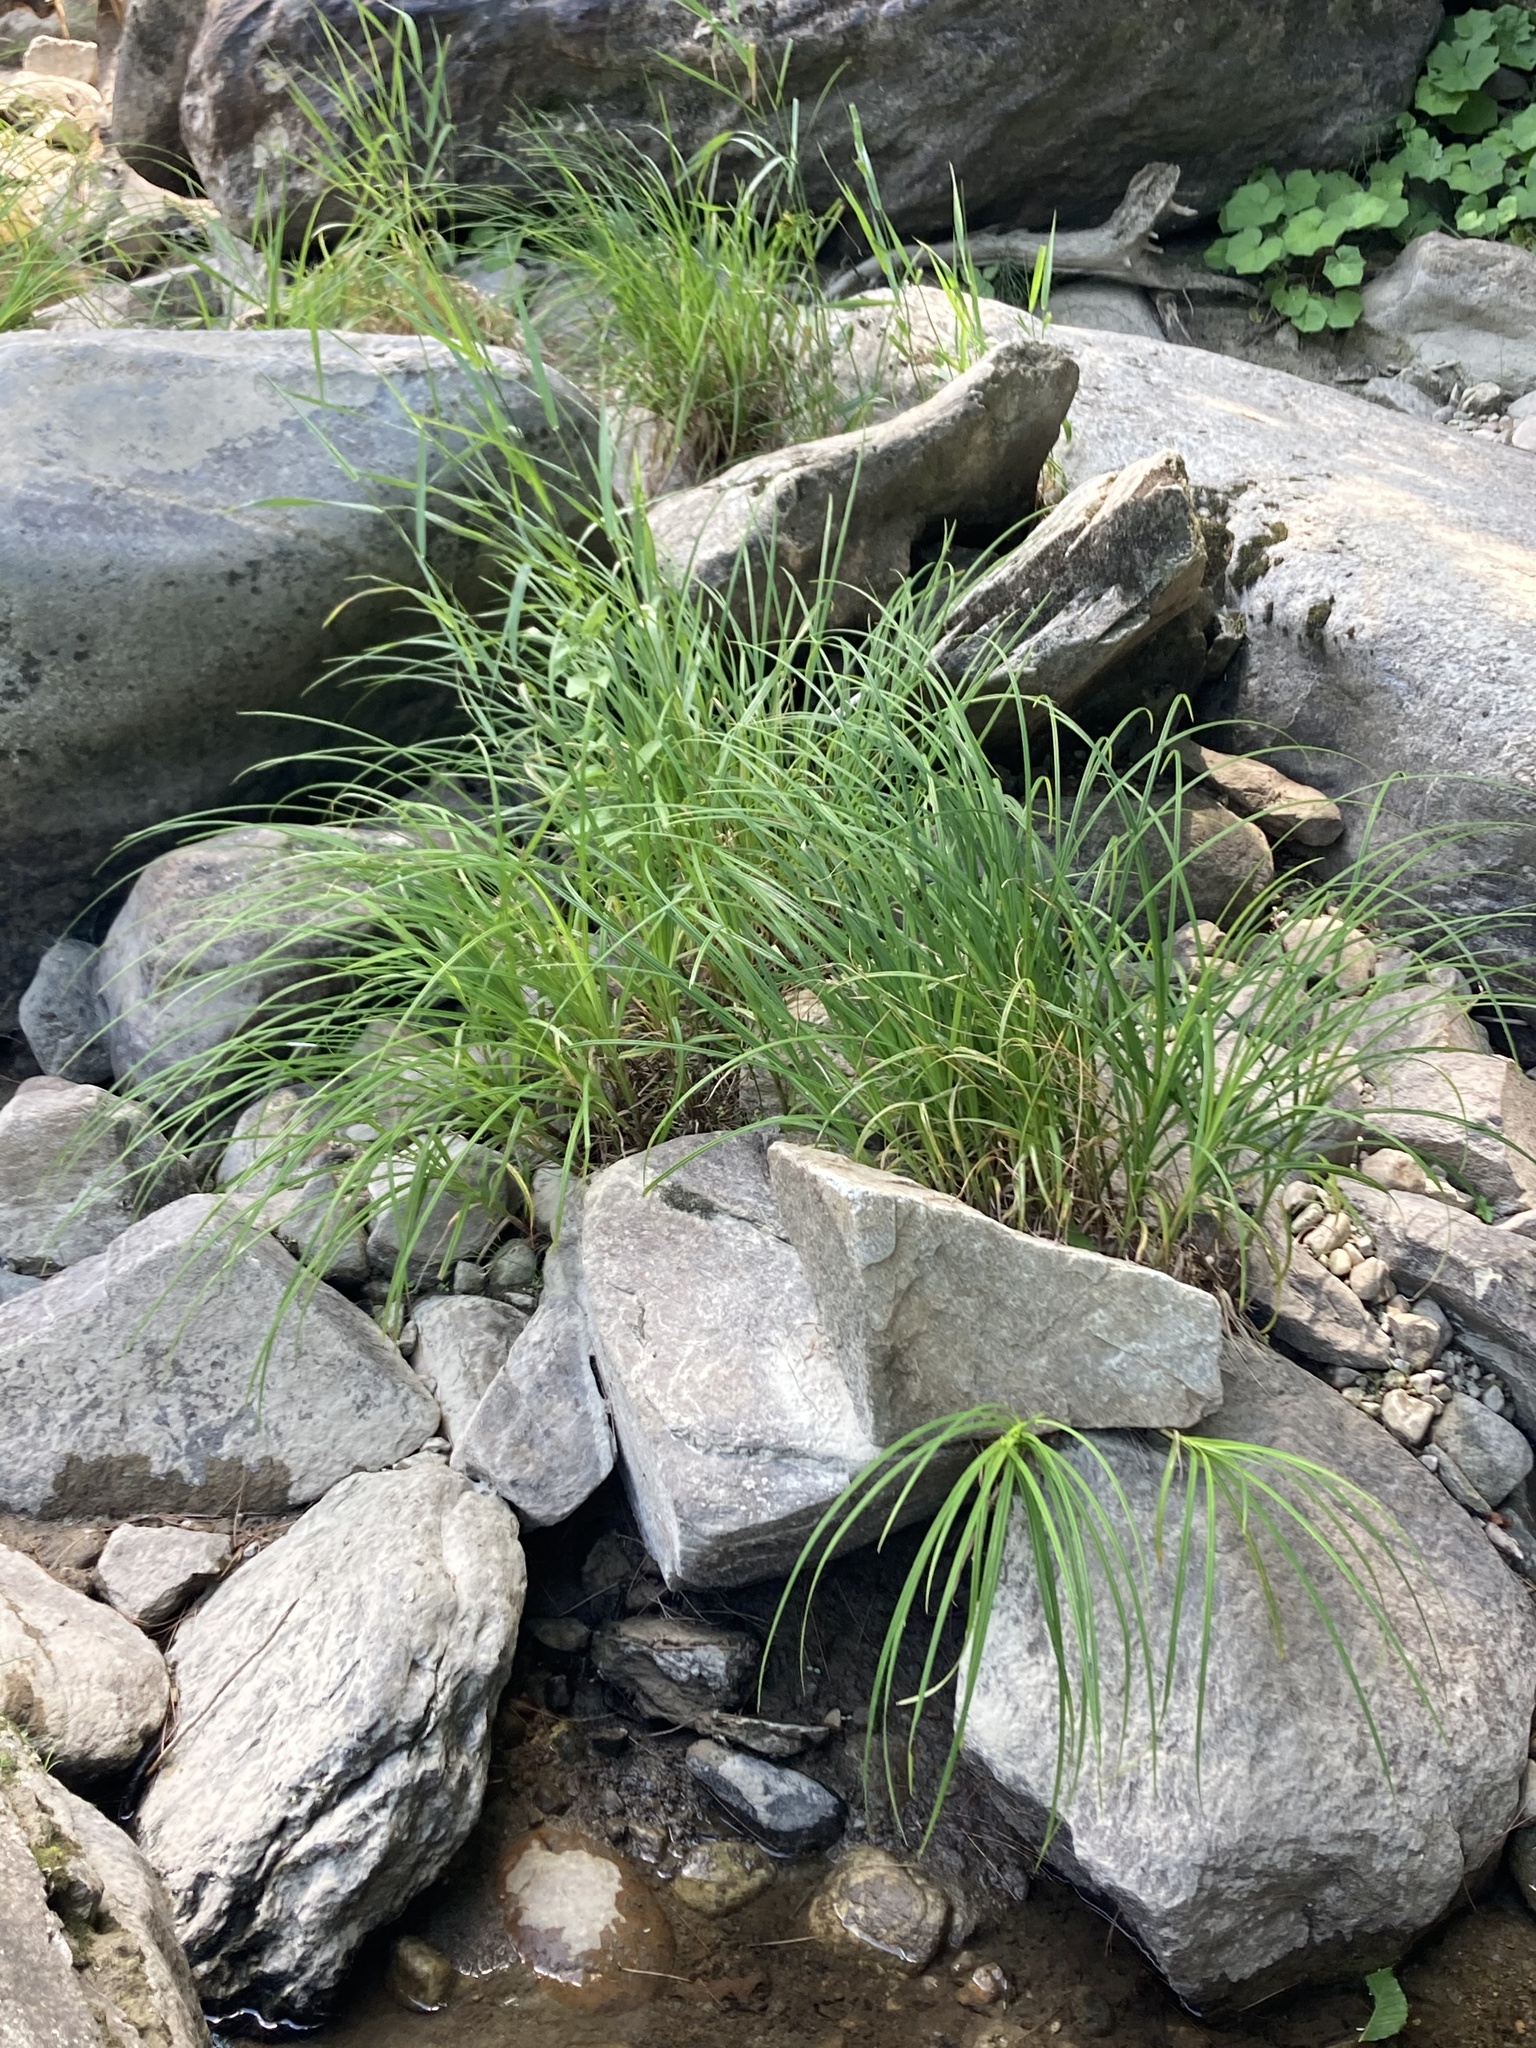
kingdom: Plantae
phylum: Tracheophyta
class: Liliopsida
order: Poales
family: Cyperaceae
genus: Carex
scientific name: Carex torta
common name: Twisted sedge
